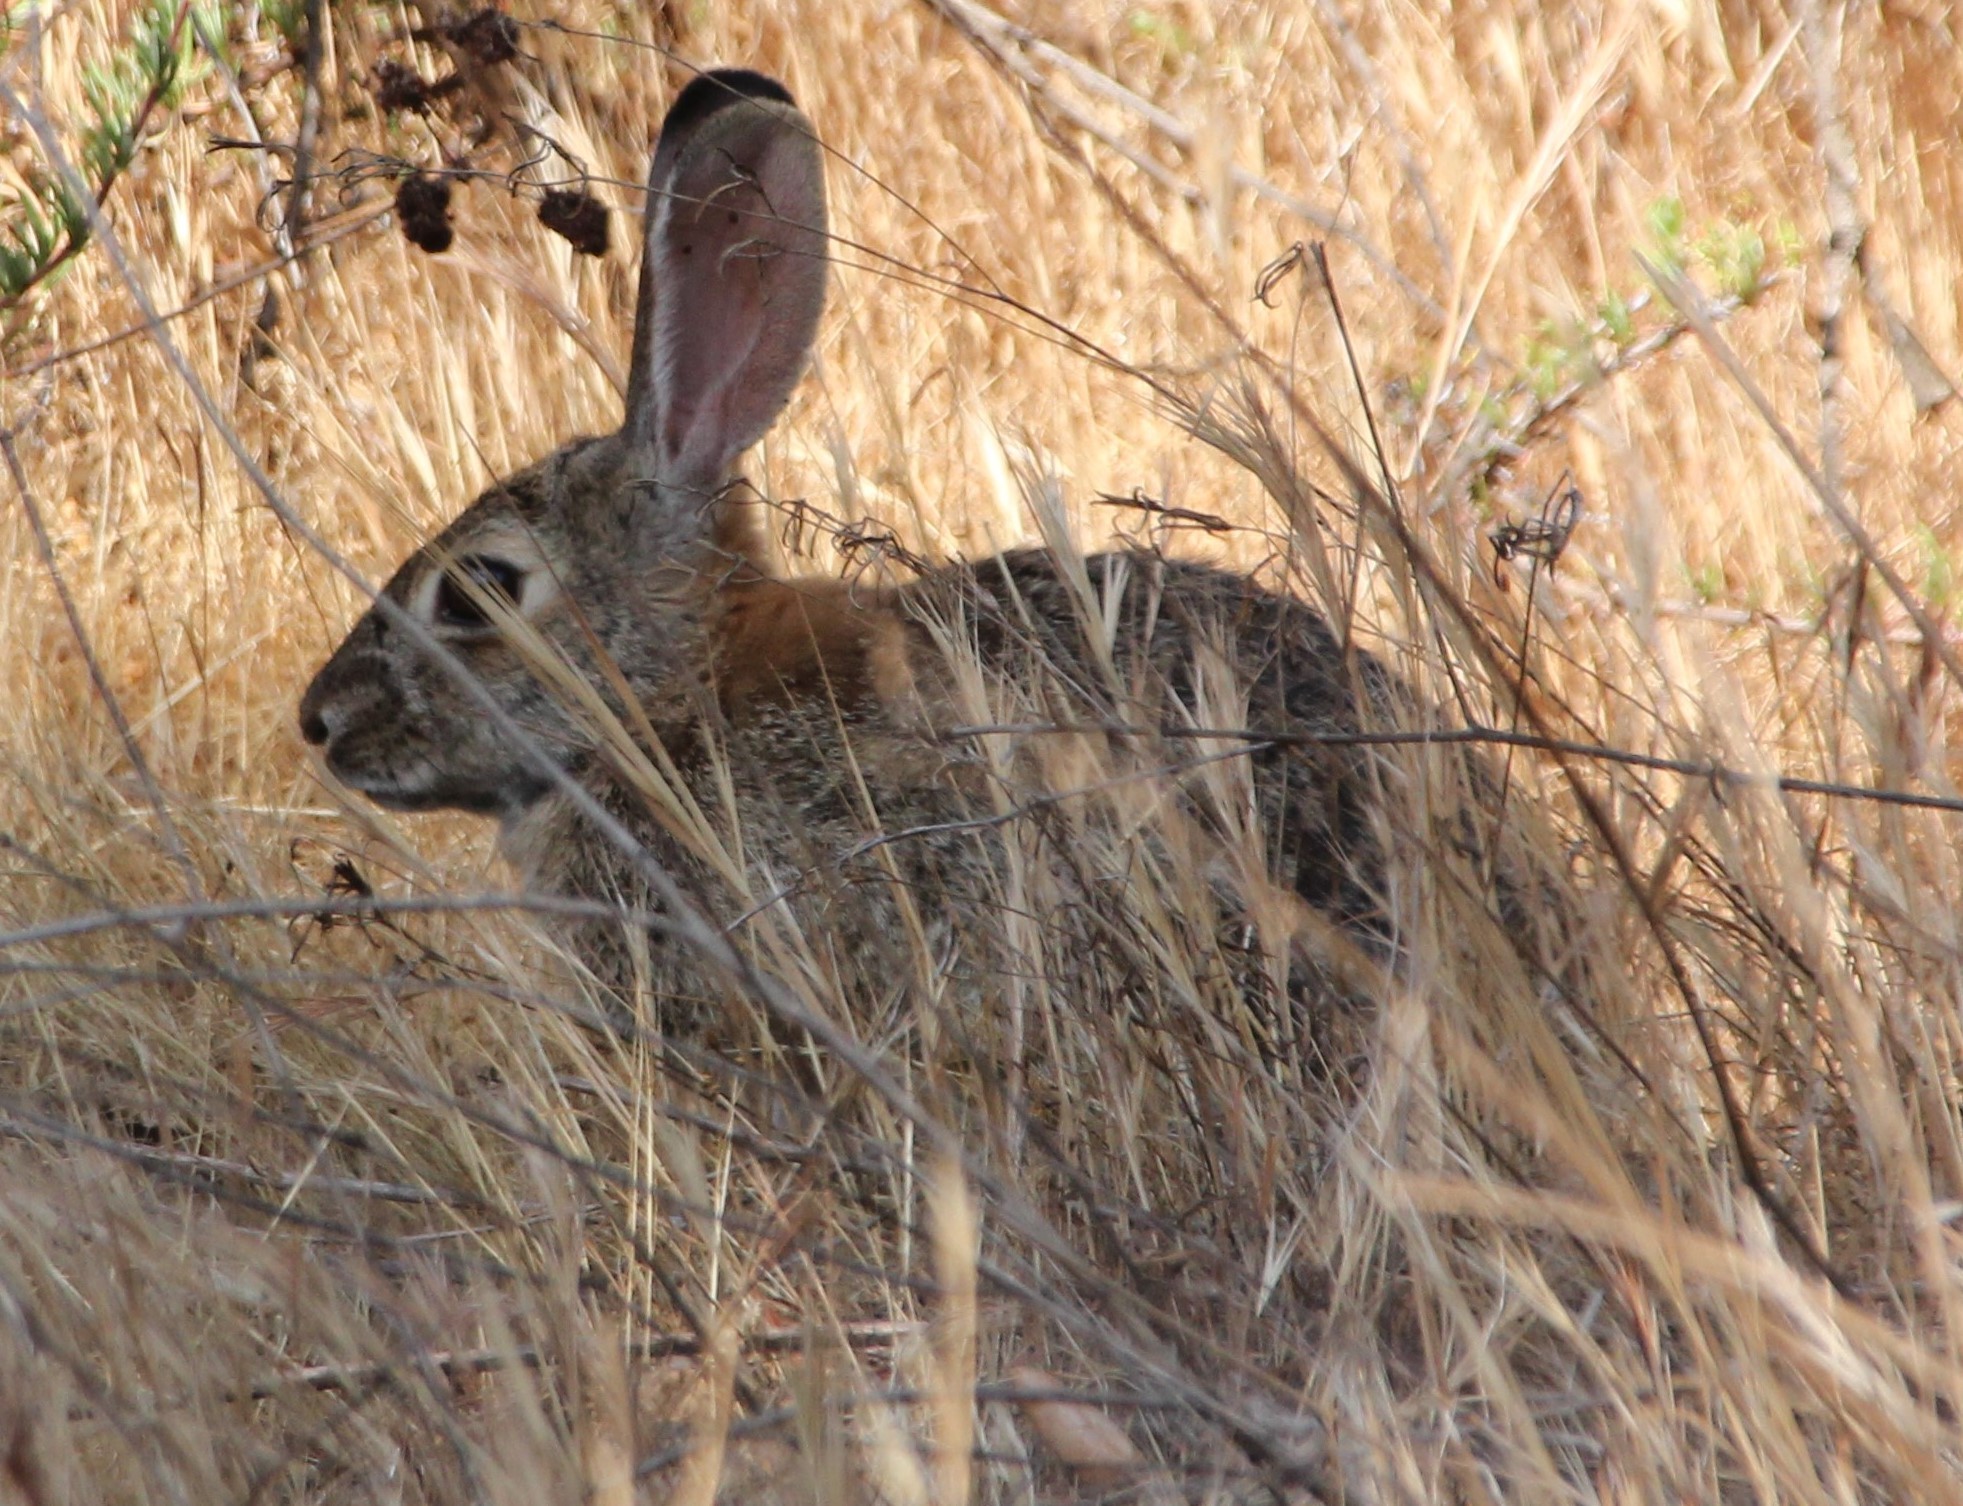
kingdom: Animalia
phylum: Chordata
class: Mammalia
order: Lagomorpha
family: Leporidae
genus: Sylvilagus
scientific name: Sylvilagus audubonii
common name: Desert cottontail
